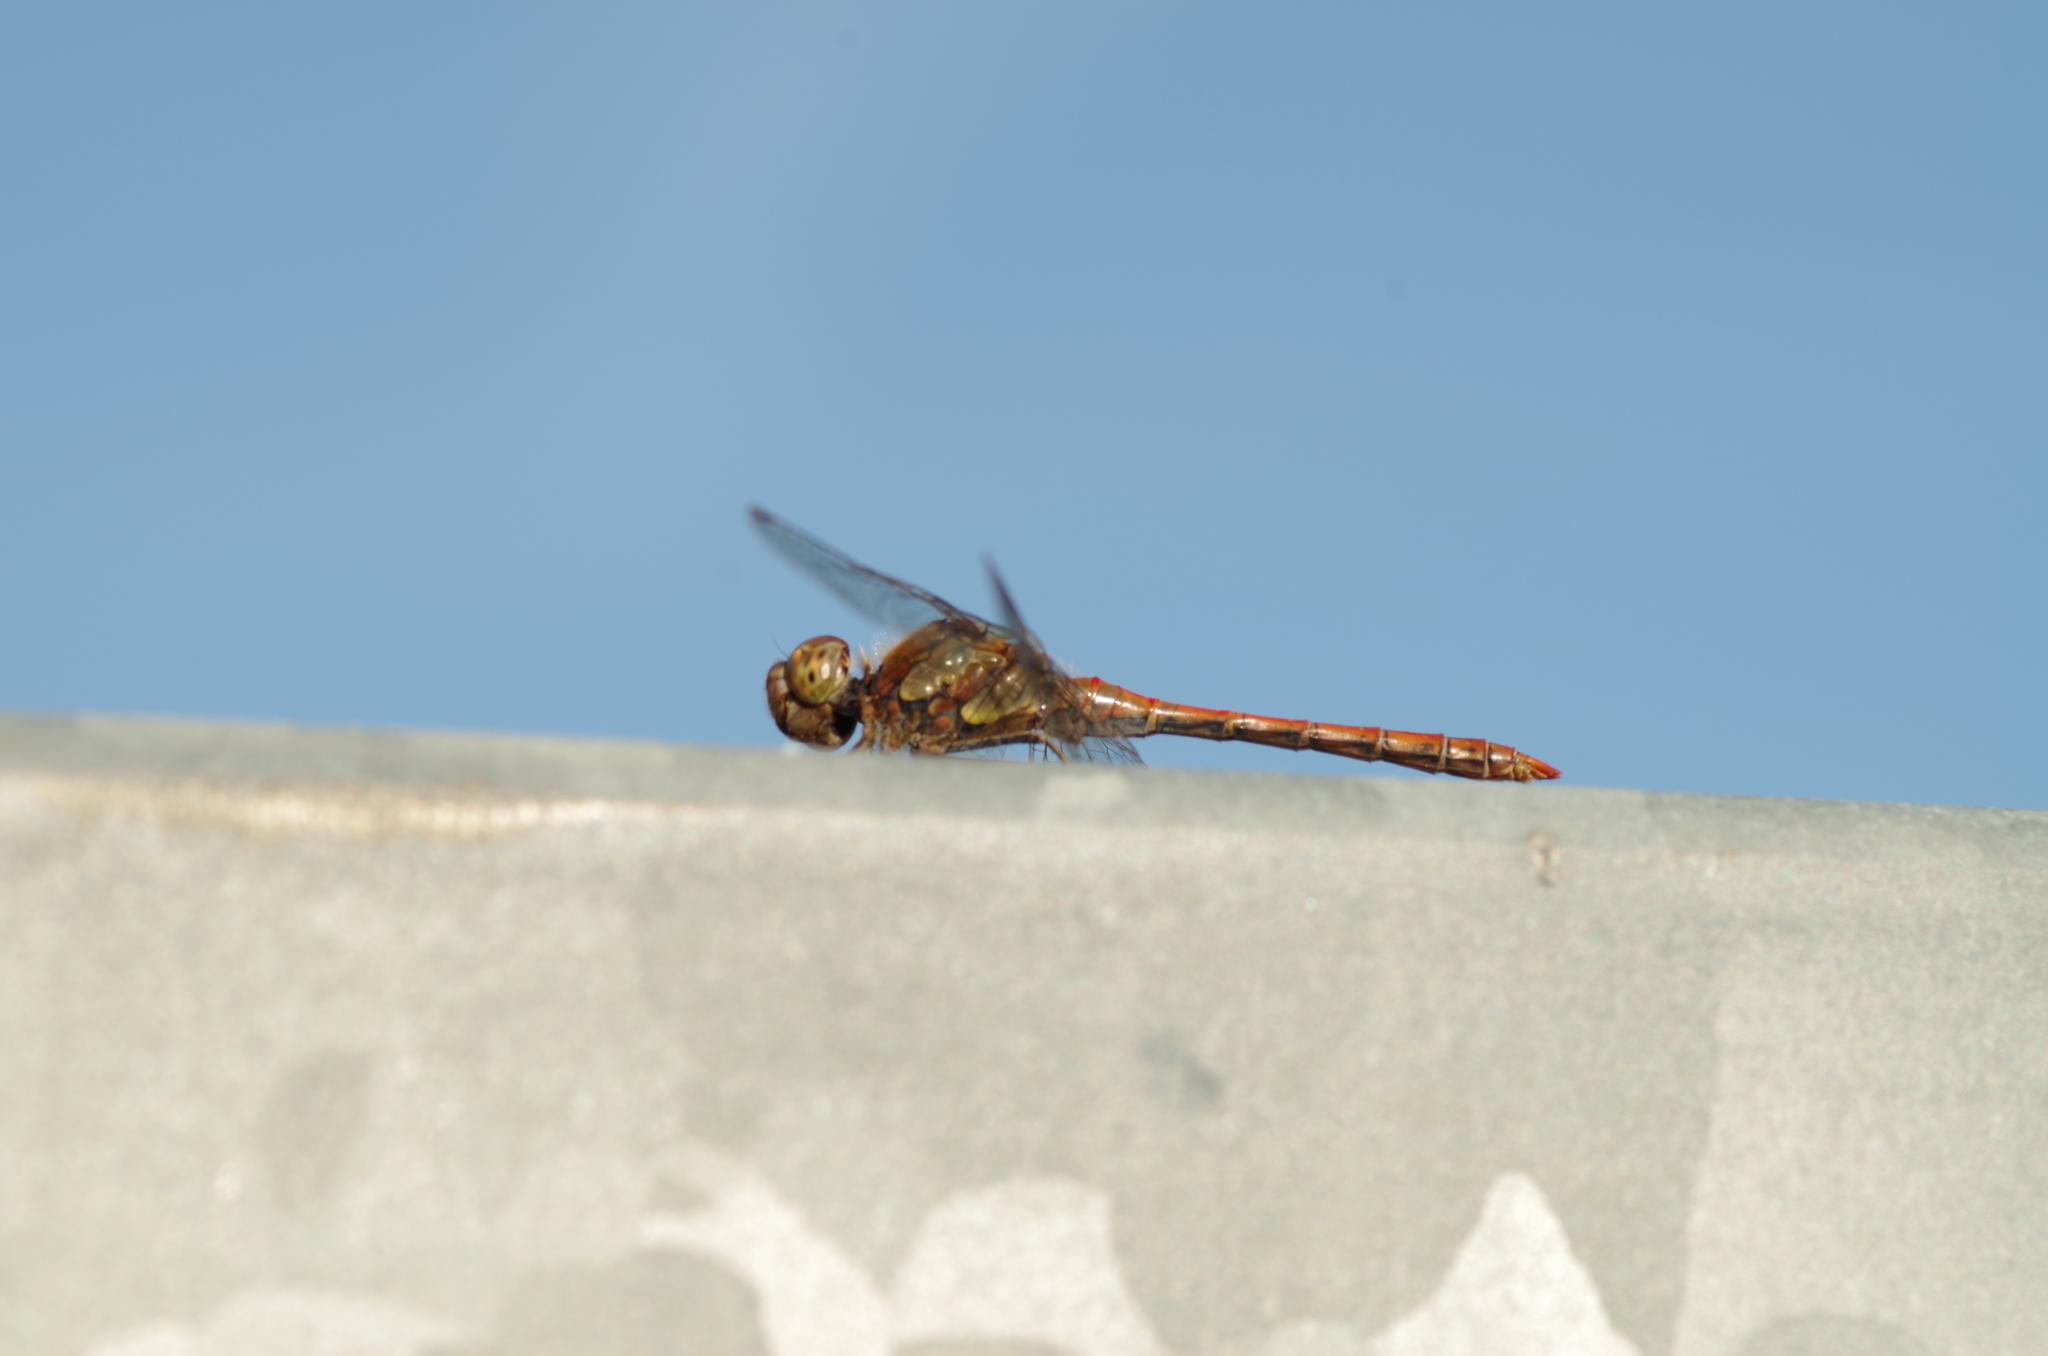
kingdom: Animalia
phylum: Arthropoda
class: Insecta
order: Odonata
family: Libellulidae
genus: Sympetrum
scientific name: Sympetrum striolatum
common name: Common darter
